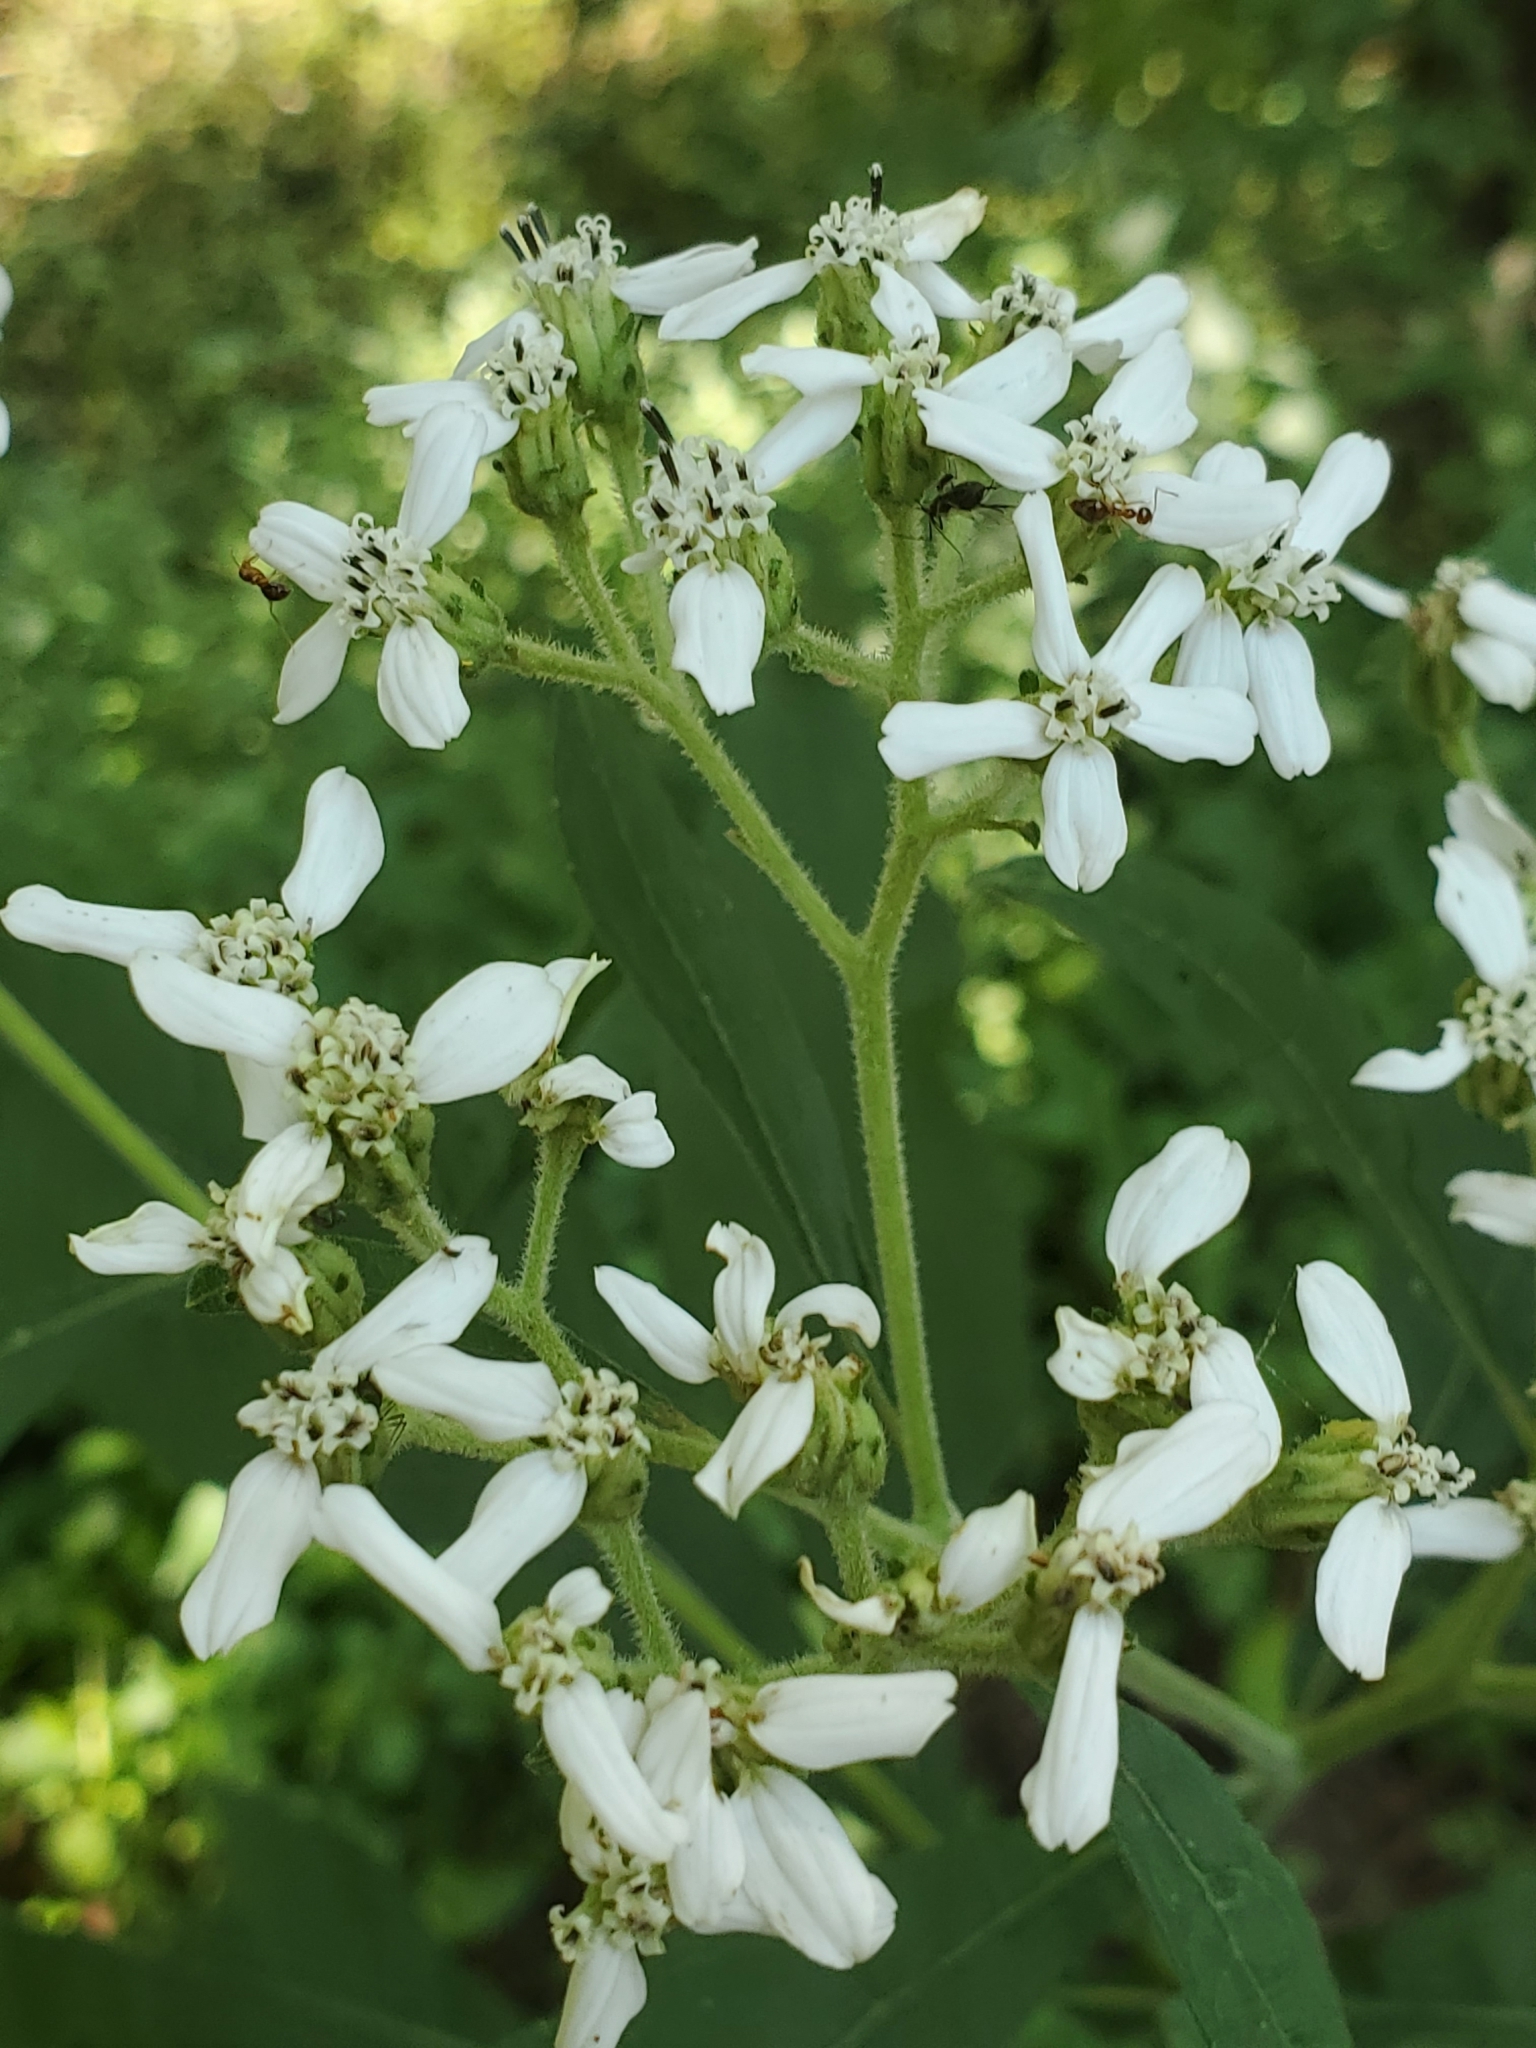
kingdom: Plantae
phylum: Tracheophyta
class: Magnoliopsida
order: Asterales
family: Asteraceae
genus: Verbesina
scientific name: Verbesina virginica
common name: Frostweed
